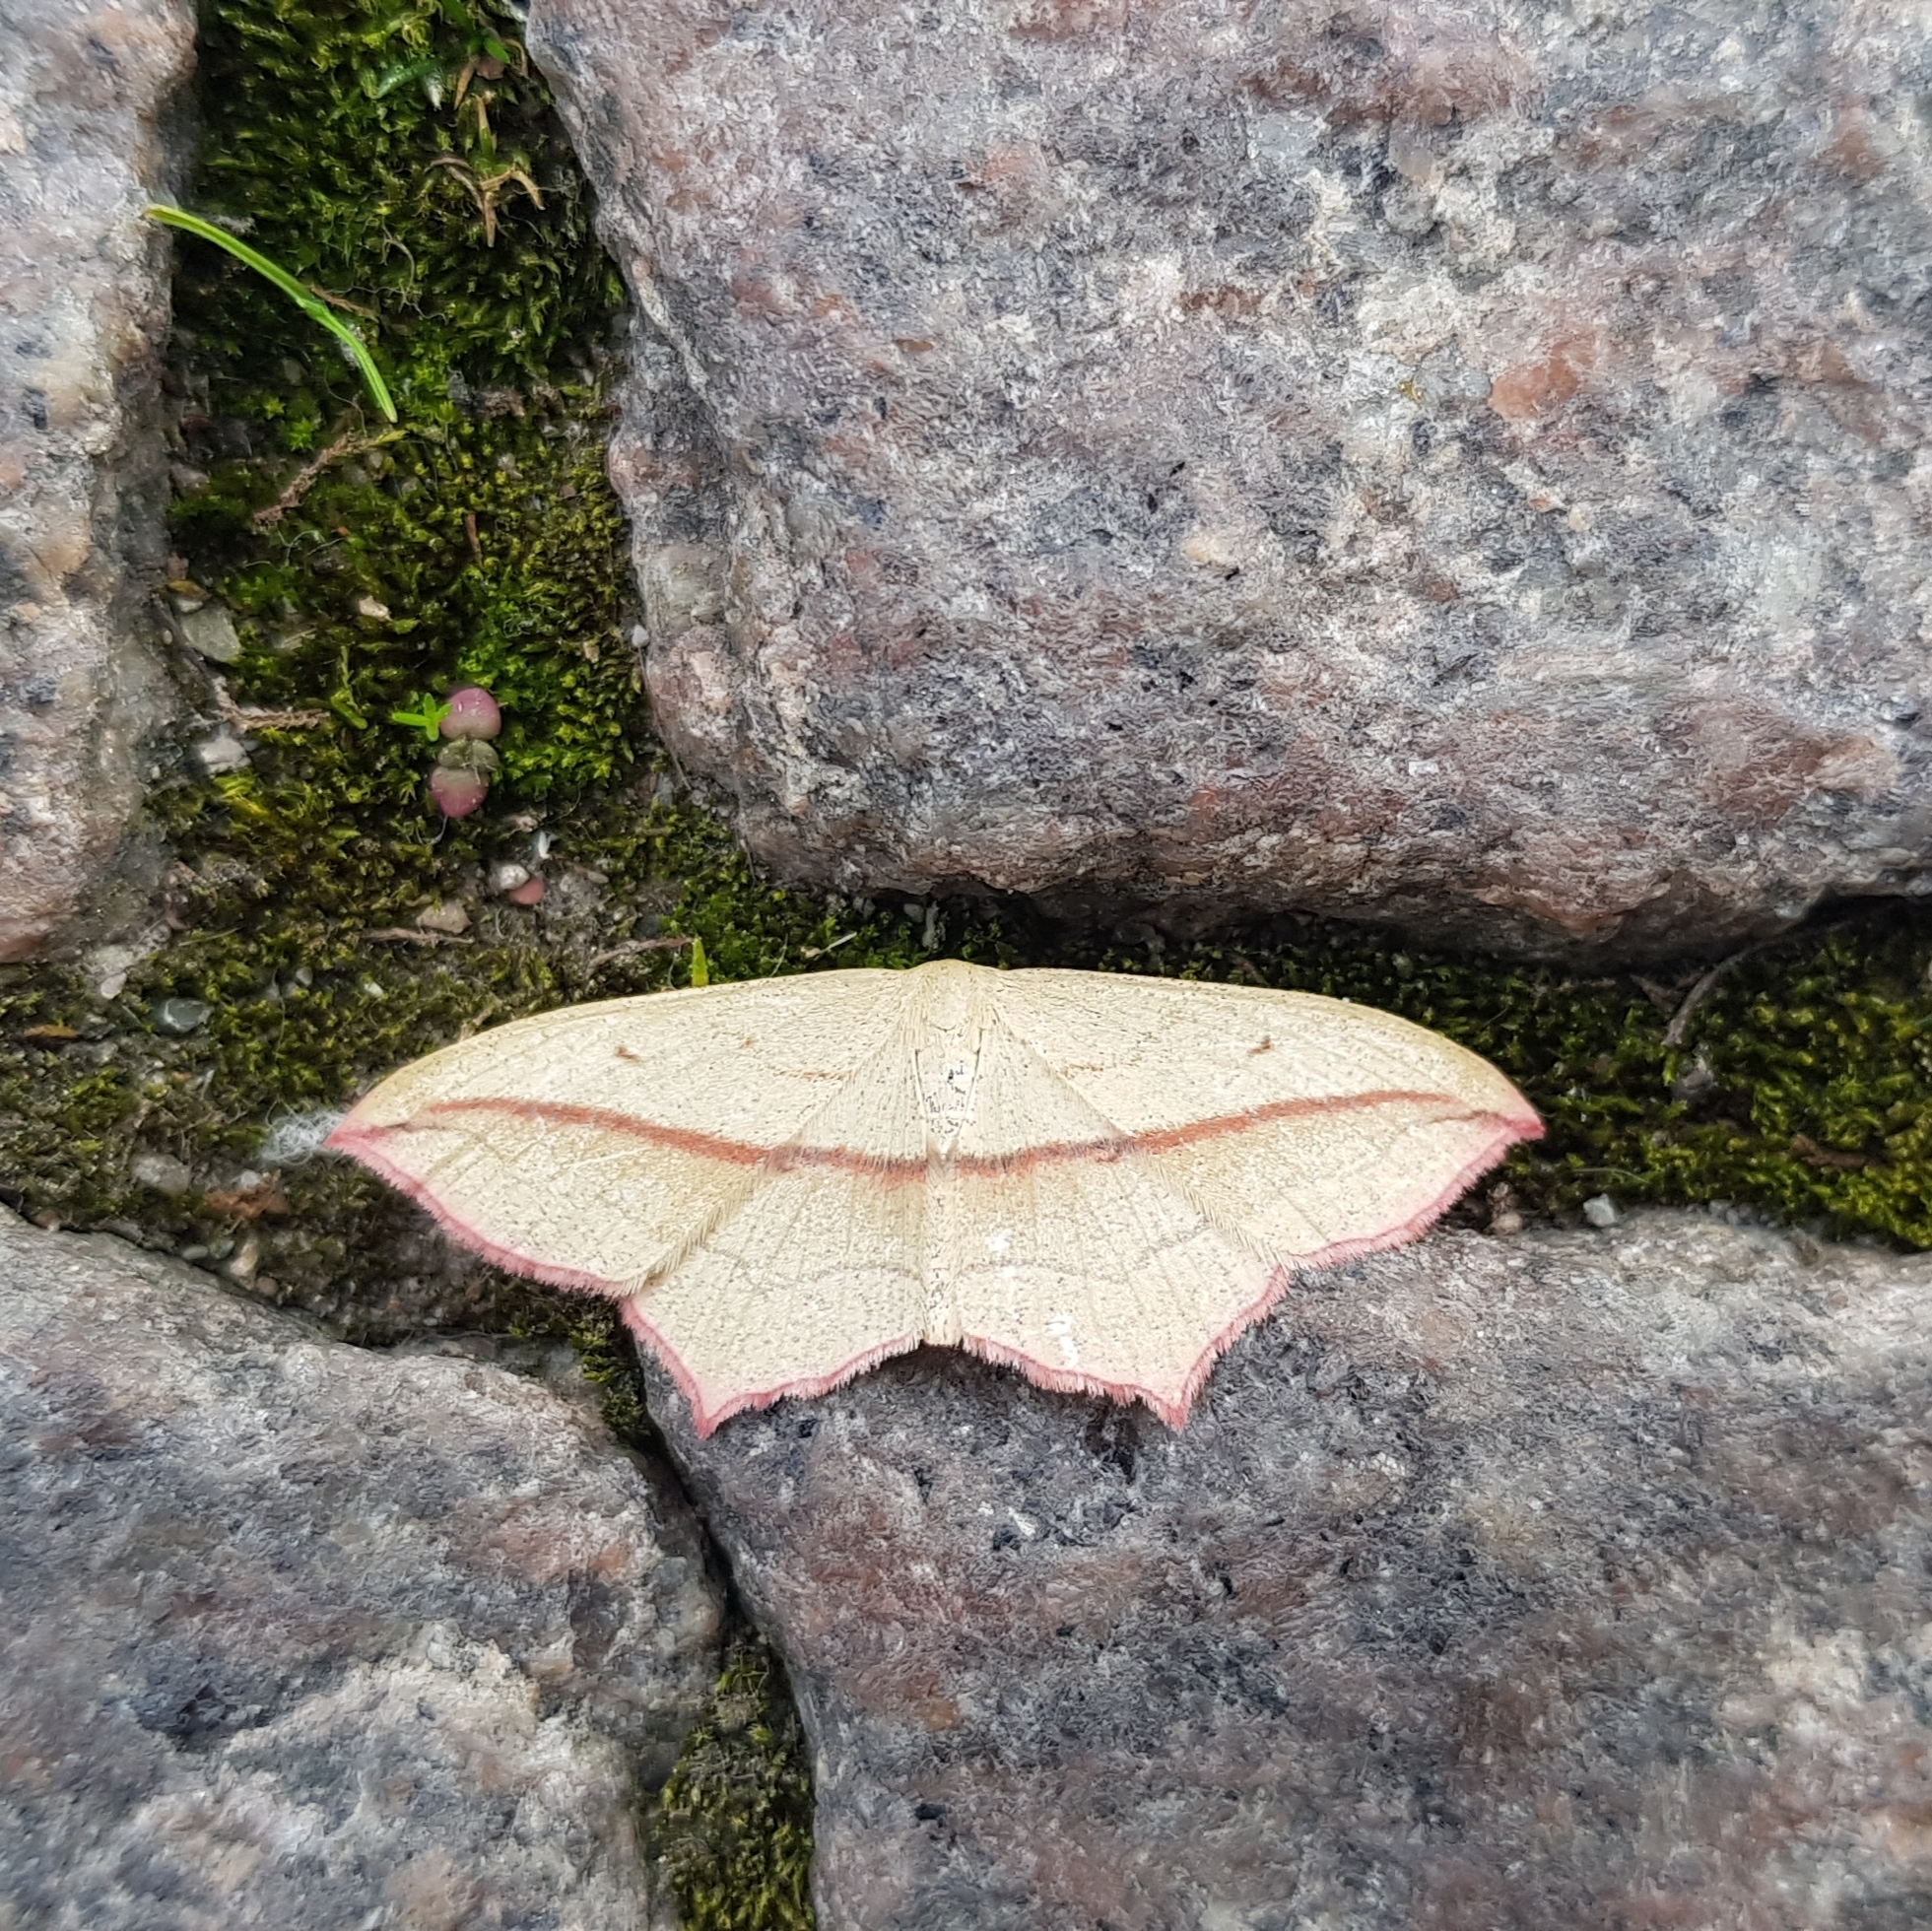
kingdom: Animalia
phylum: Arthropoda
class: Insecta
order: Lepidoptera
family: Geometridae
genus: Timandra
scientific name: Timandra comae
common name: Blood-vein
